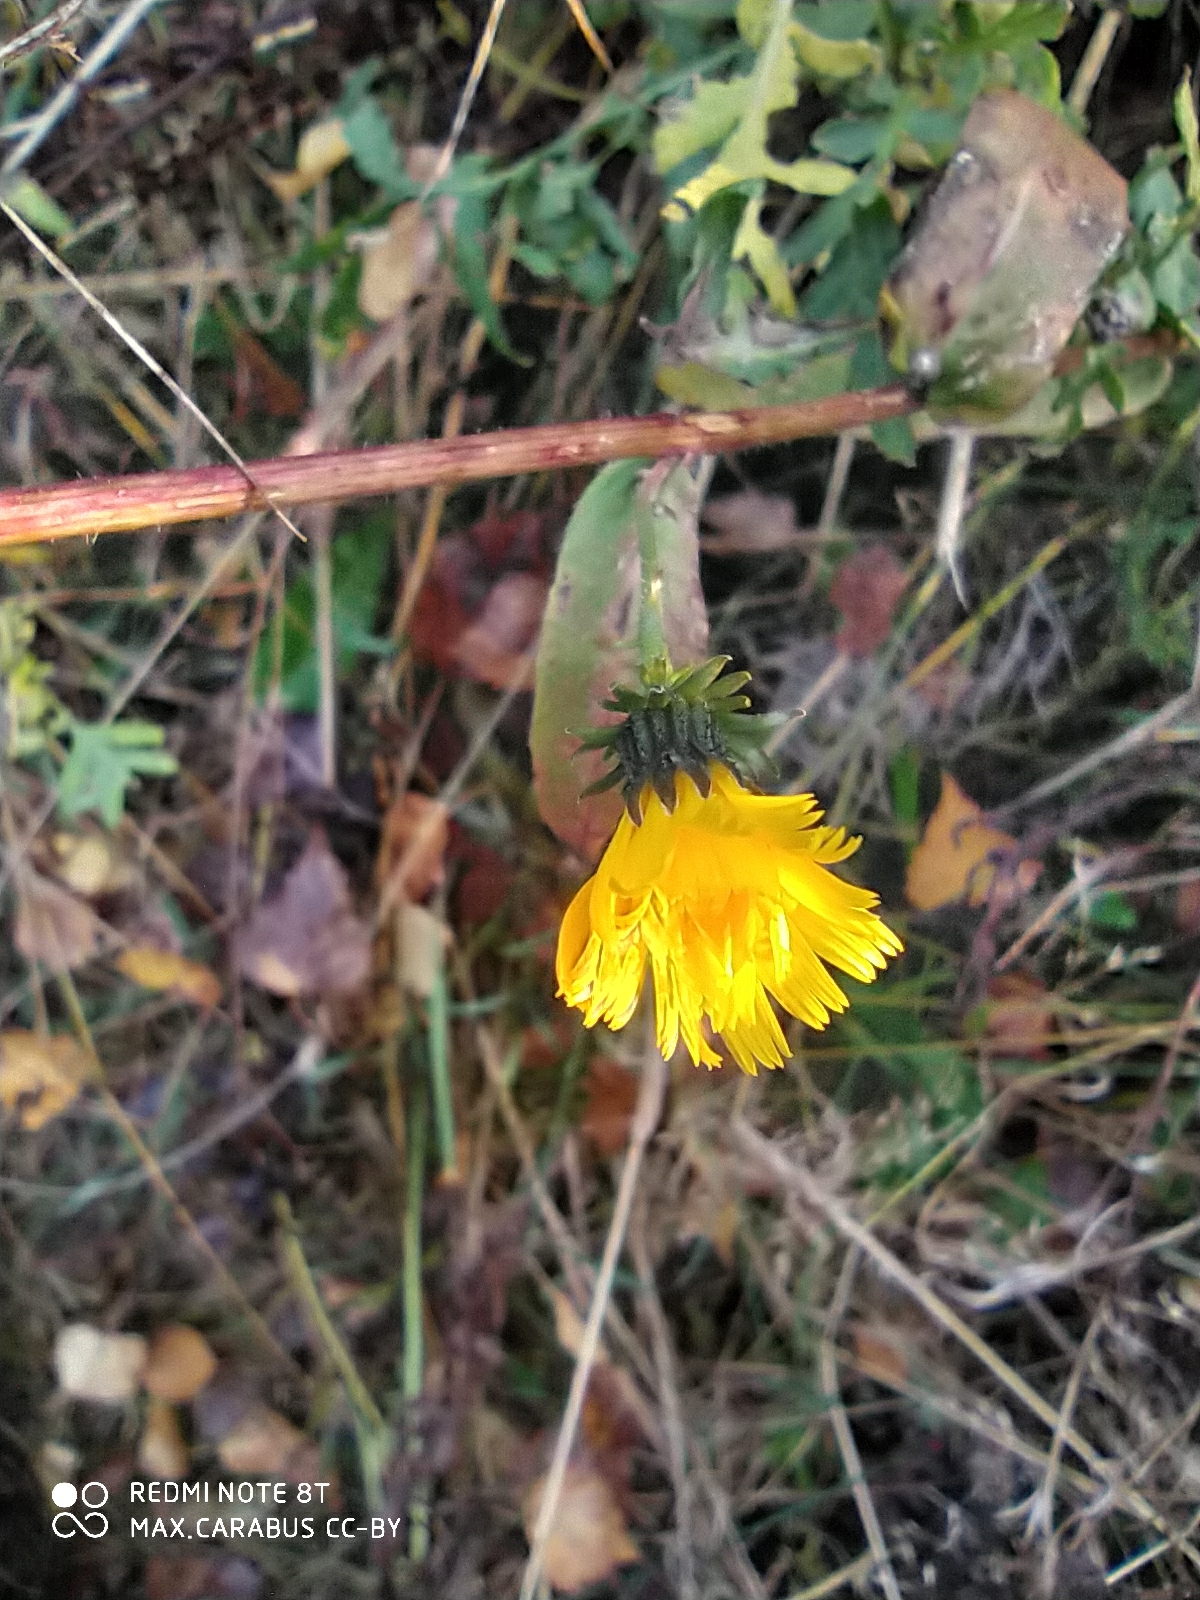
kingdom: Plantae
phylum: Tracheophyta
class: Magnoliopsida
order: Asterales
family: Asteraceae
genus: Picris
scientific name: Picris hieracioides
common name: Hawkweed oxtongue
